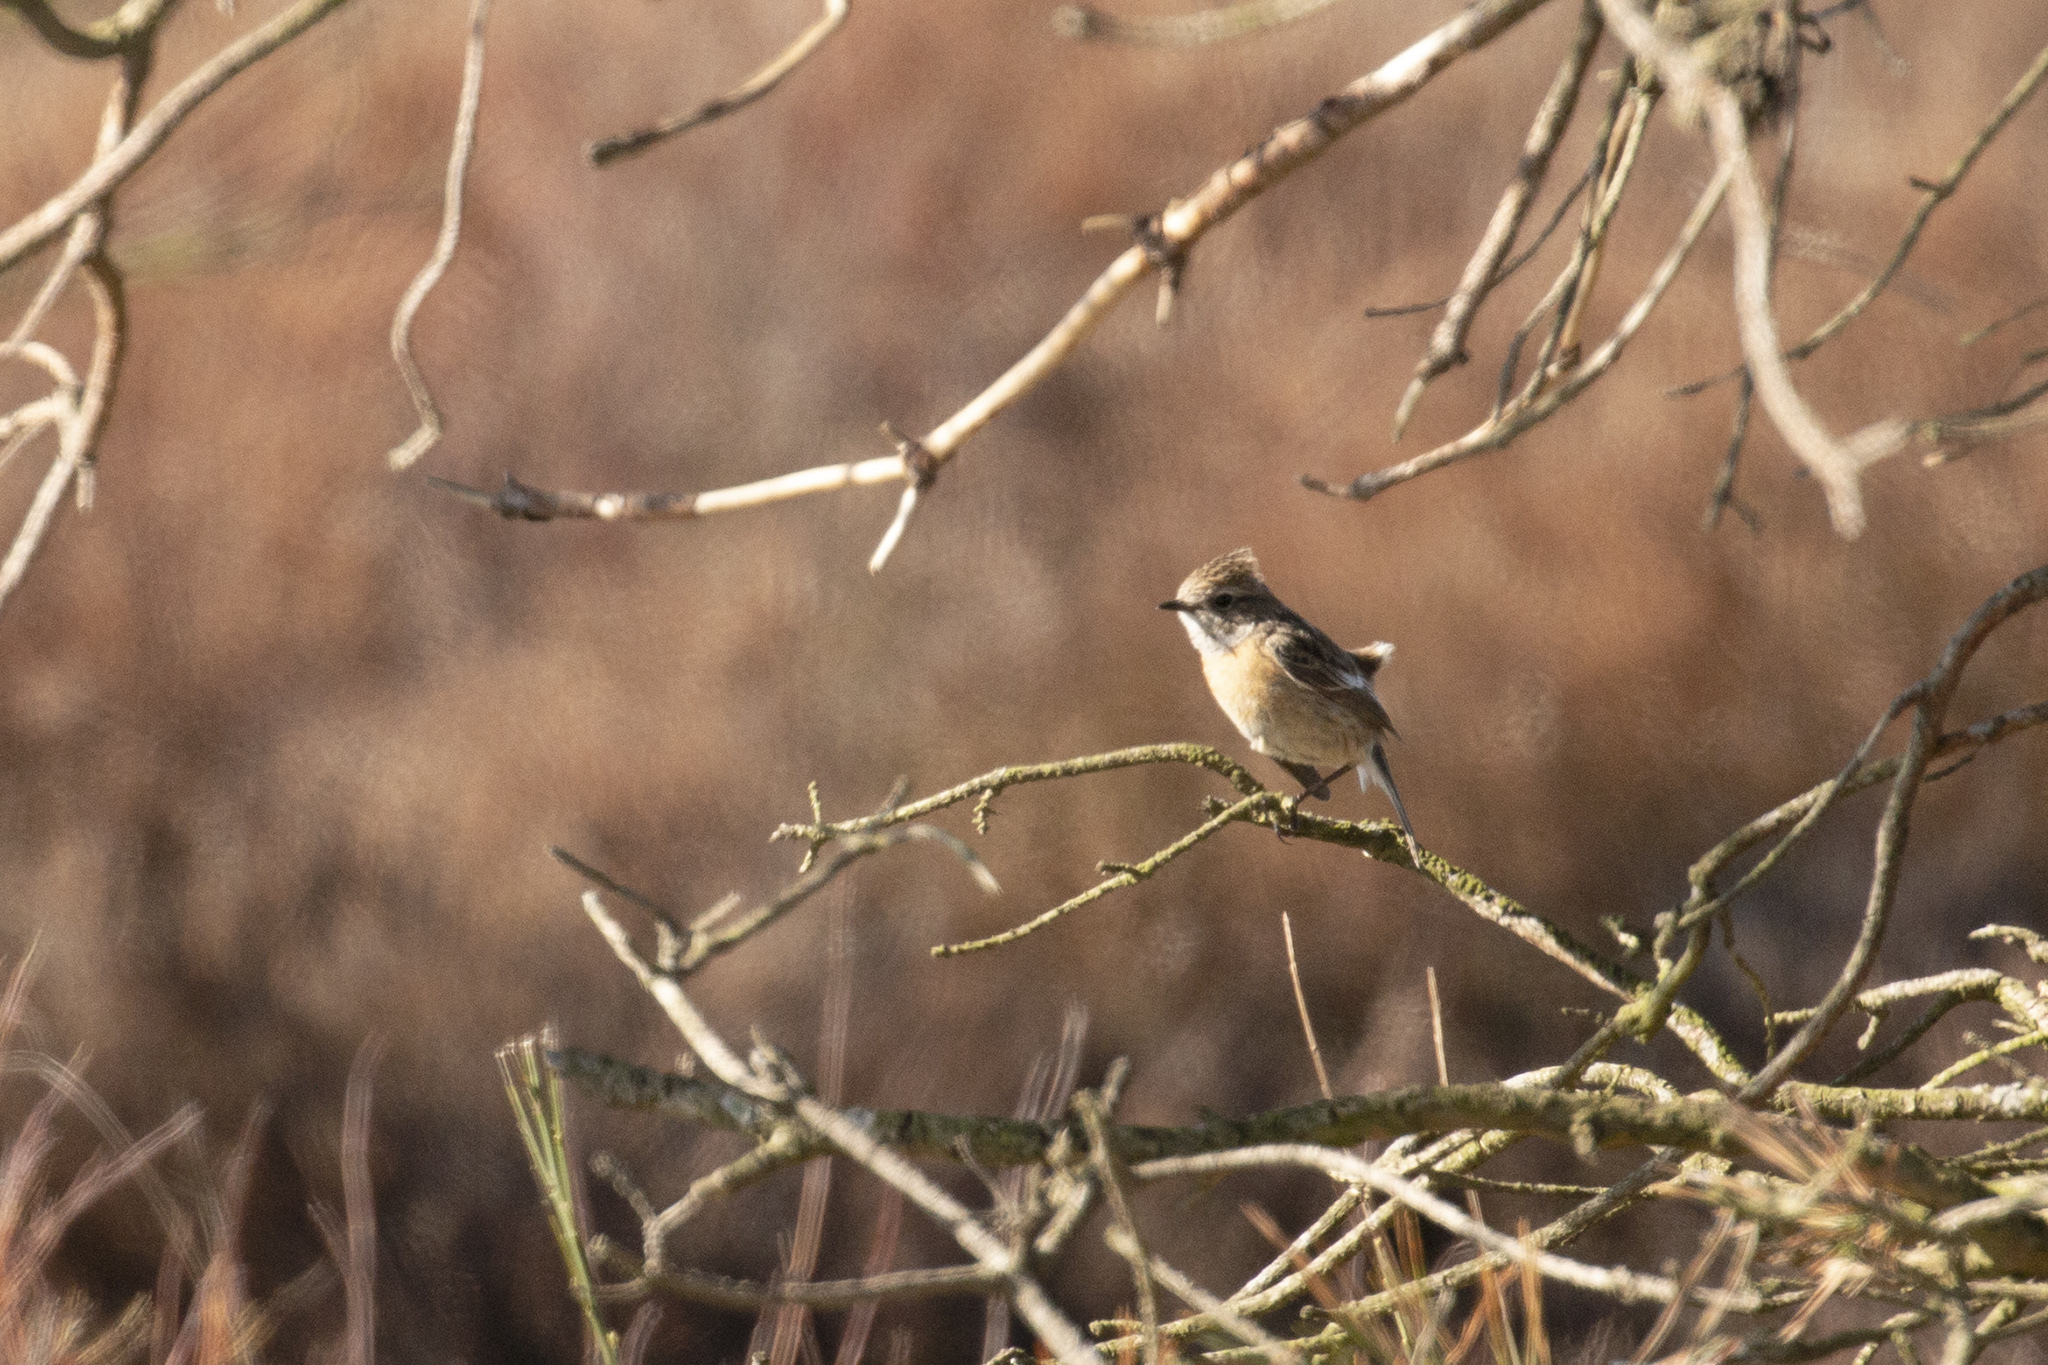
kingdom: Animalia
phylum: Chordata
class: Aves
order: Passeriformes
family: Muscicapidae
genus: Saxicola
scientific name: Saxicola rubicola
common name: European stonechat
